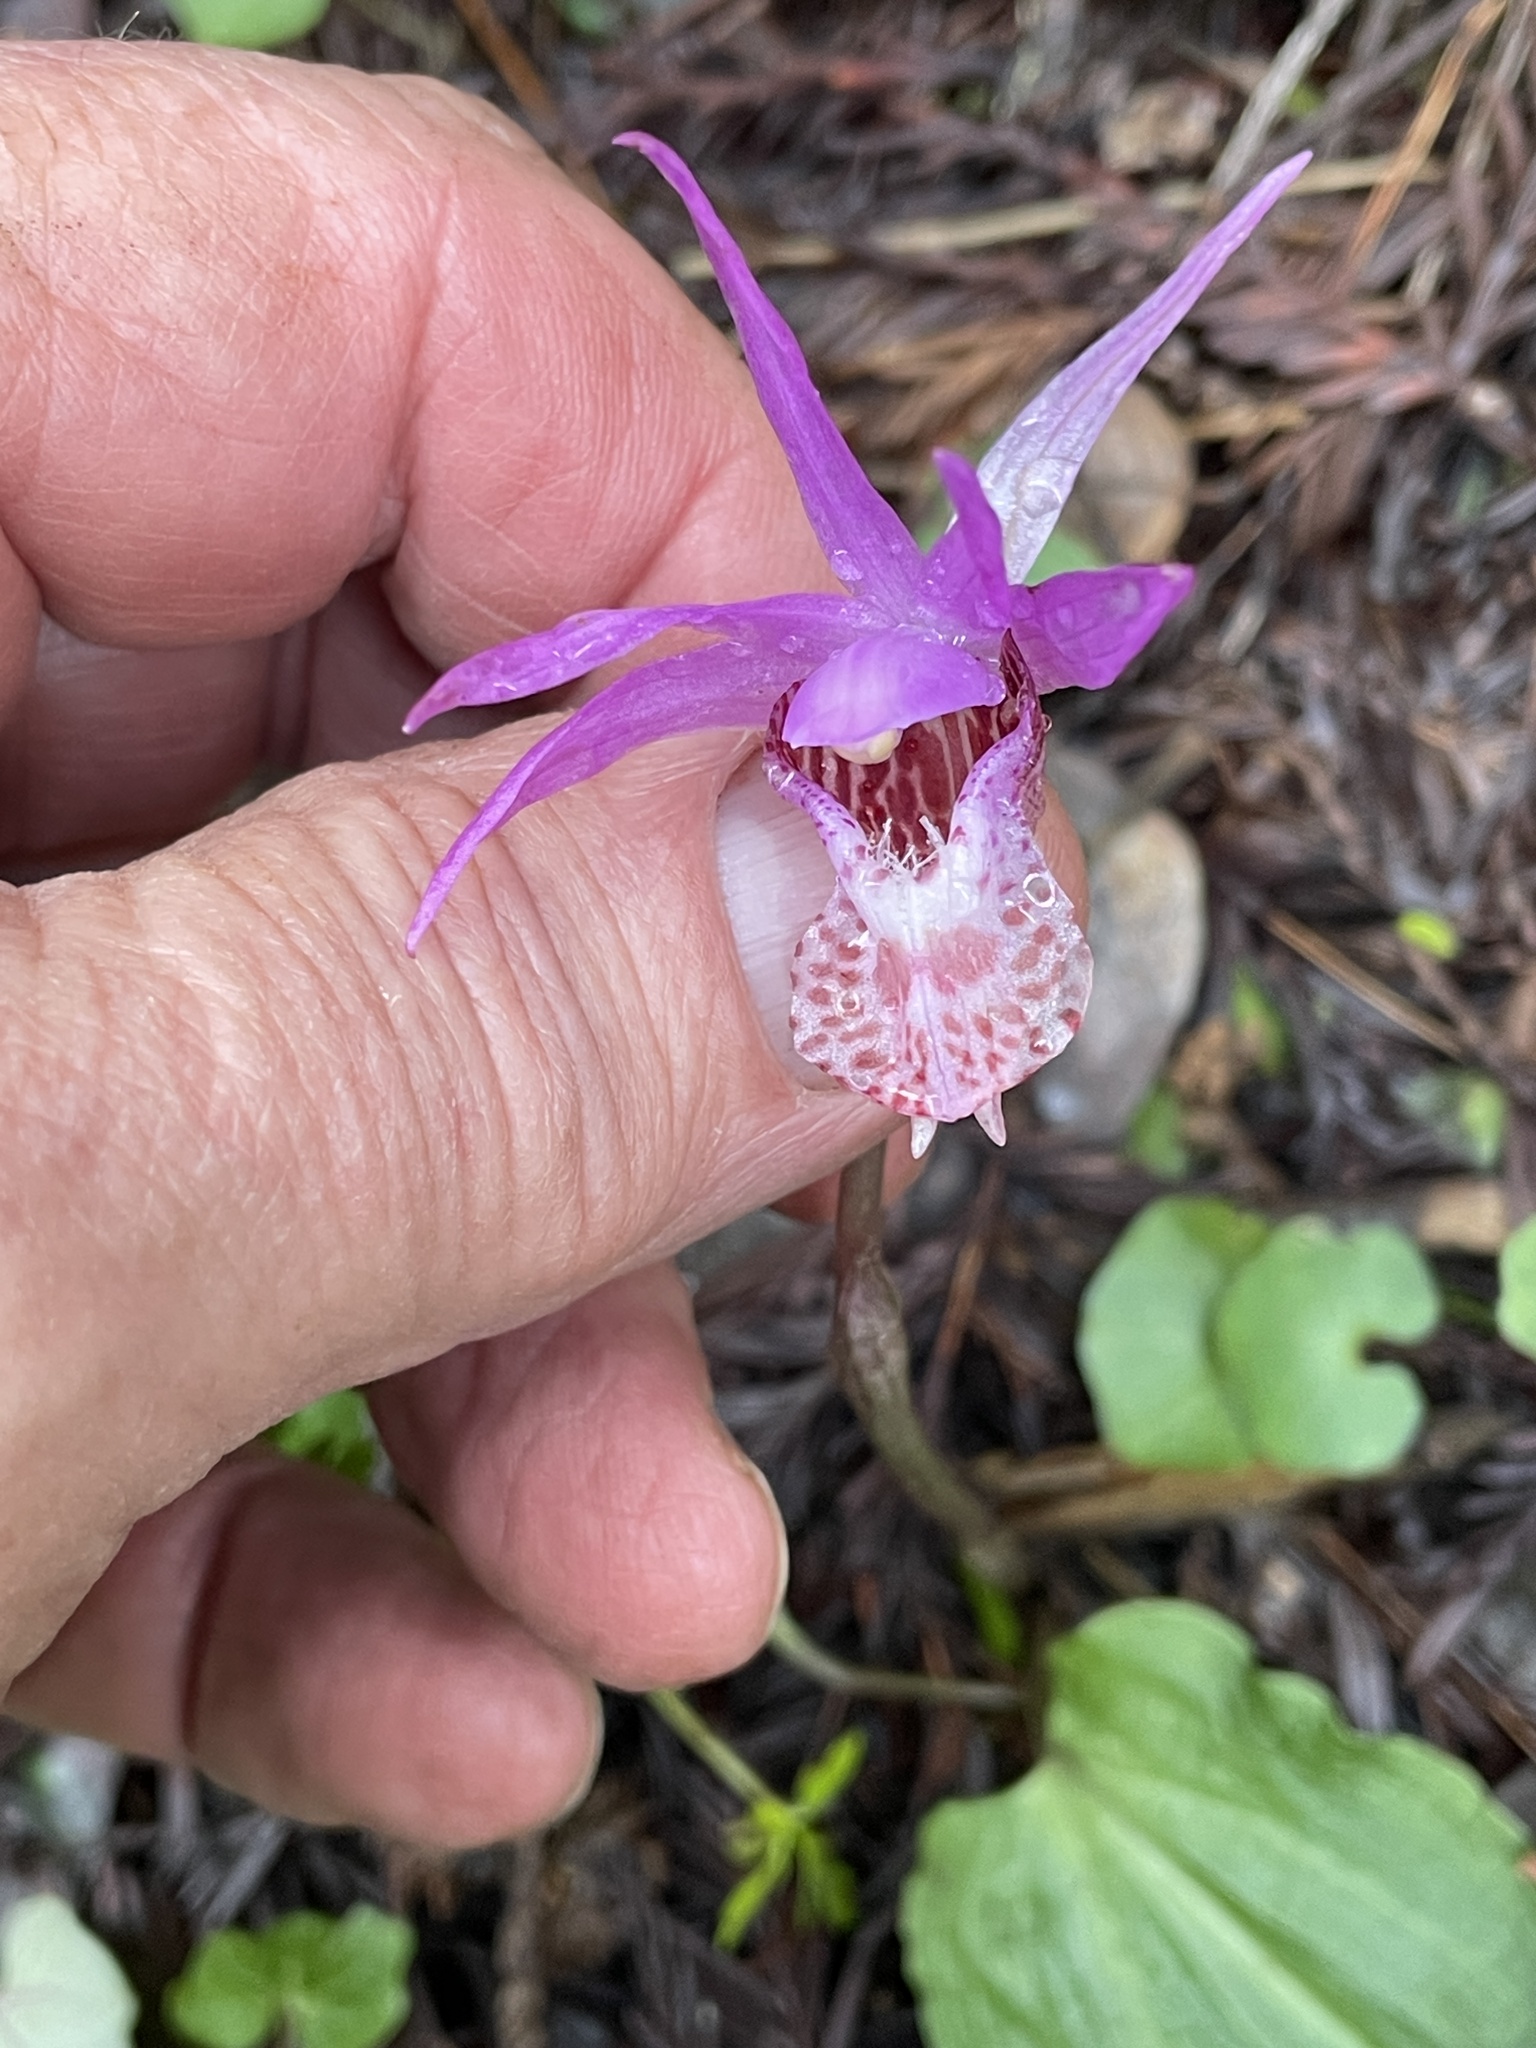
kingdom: Plantae
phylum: Tracheophyta
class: Liliopsida
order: Asparagales
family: Orchidaceae
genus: Calypso
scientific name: Calypso bulbosa
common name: Calypso
